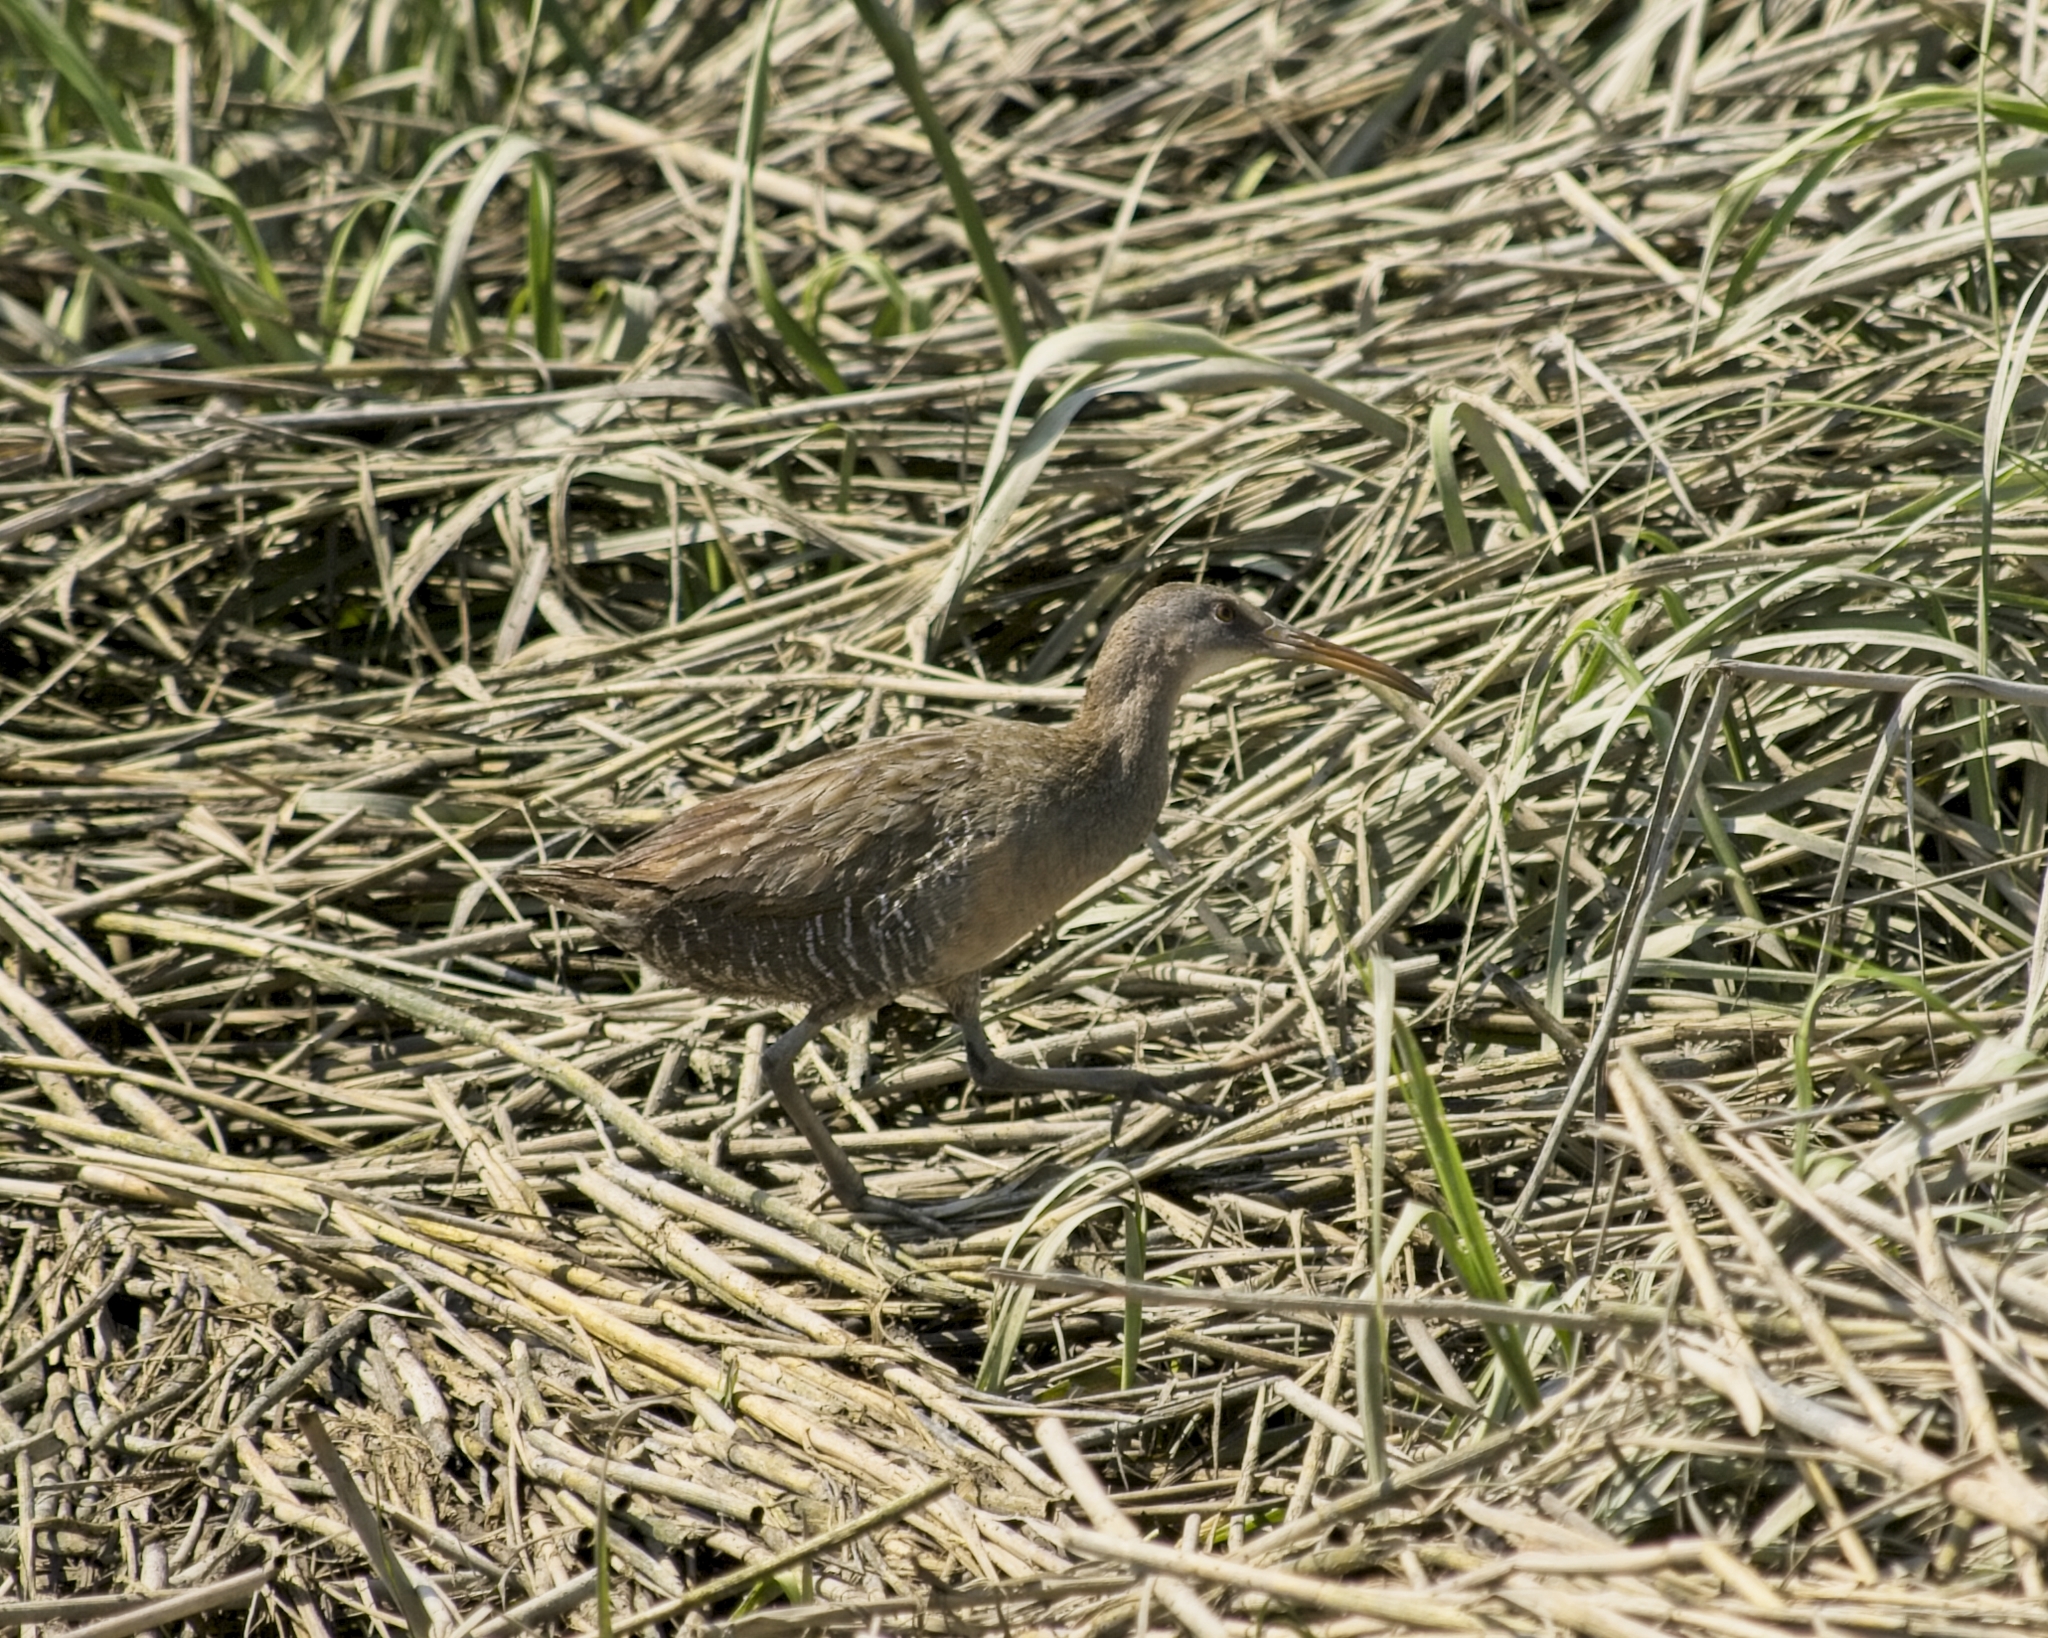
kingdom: Animalia
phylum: Chordata
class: Aves
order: Gruiformes
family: Rallidae
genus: Rallus
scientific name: Rallus crepitans
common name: Clapper rail
